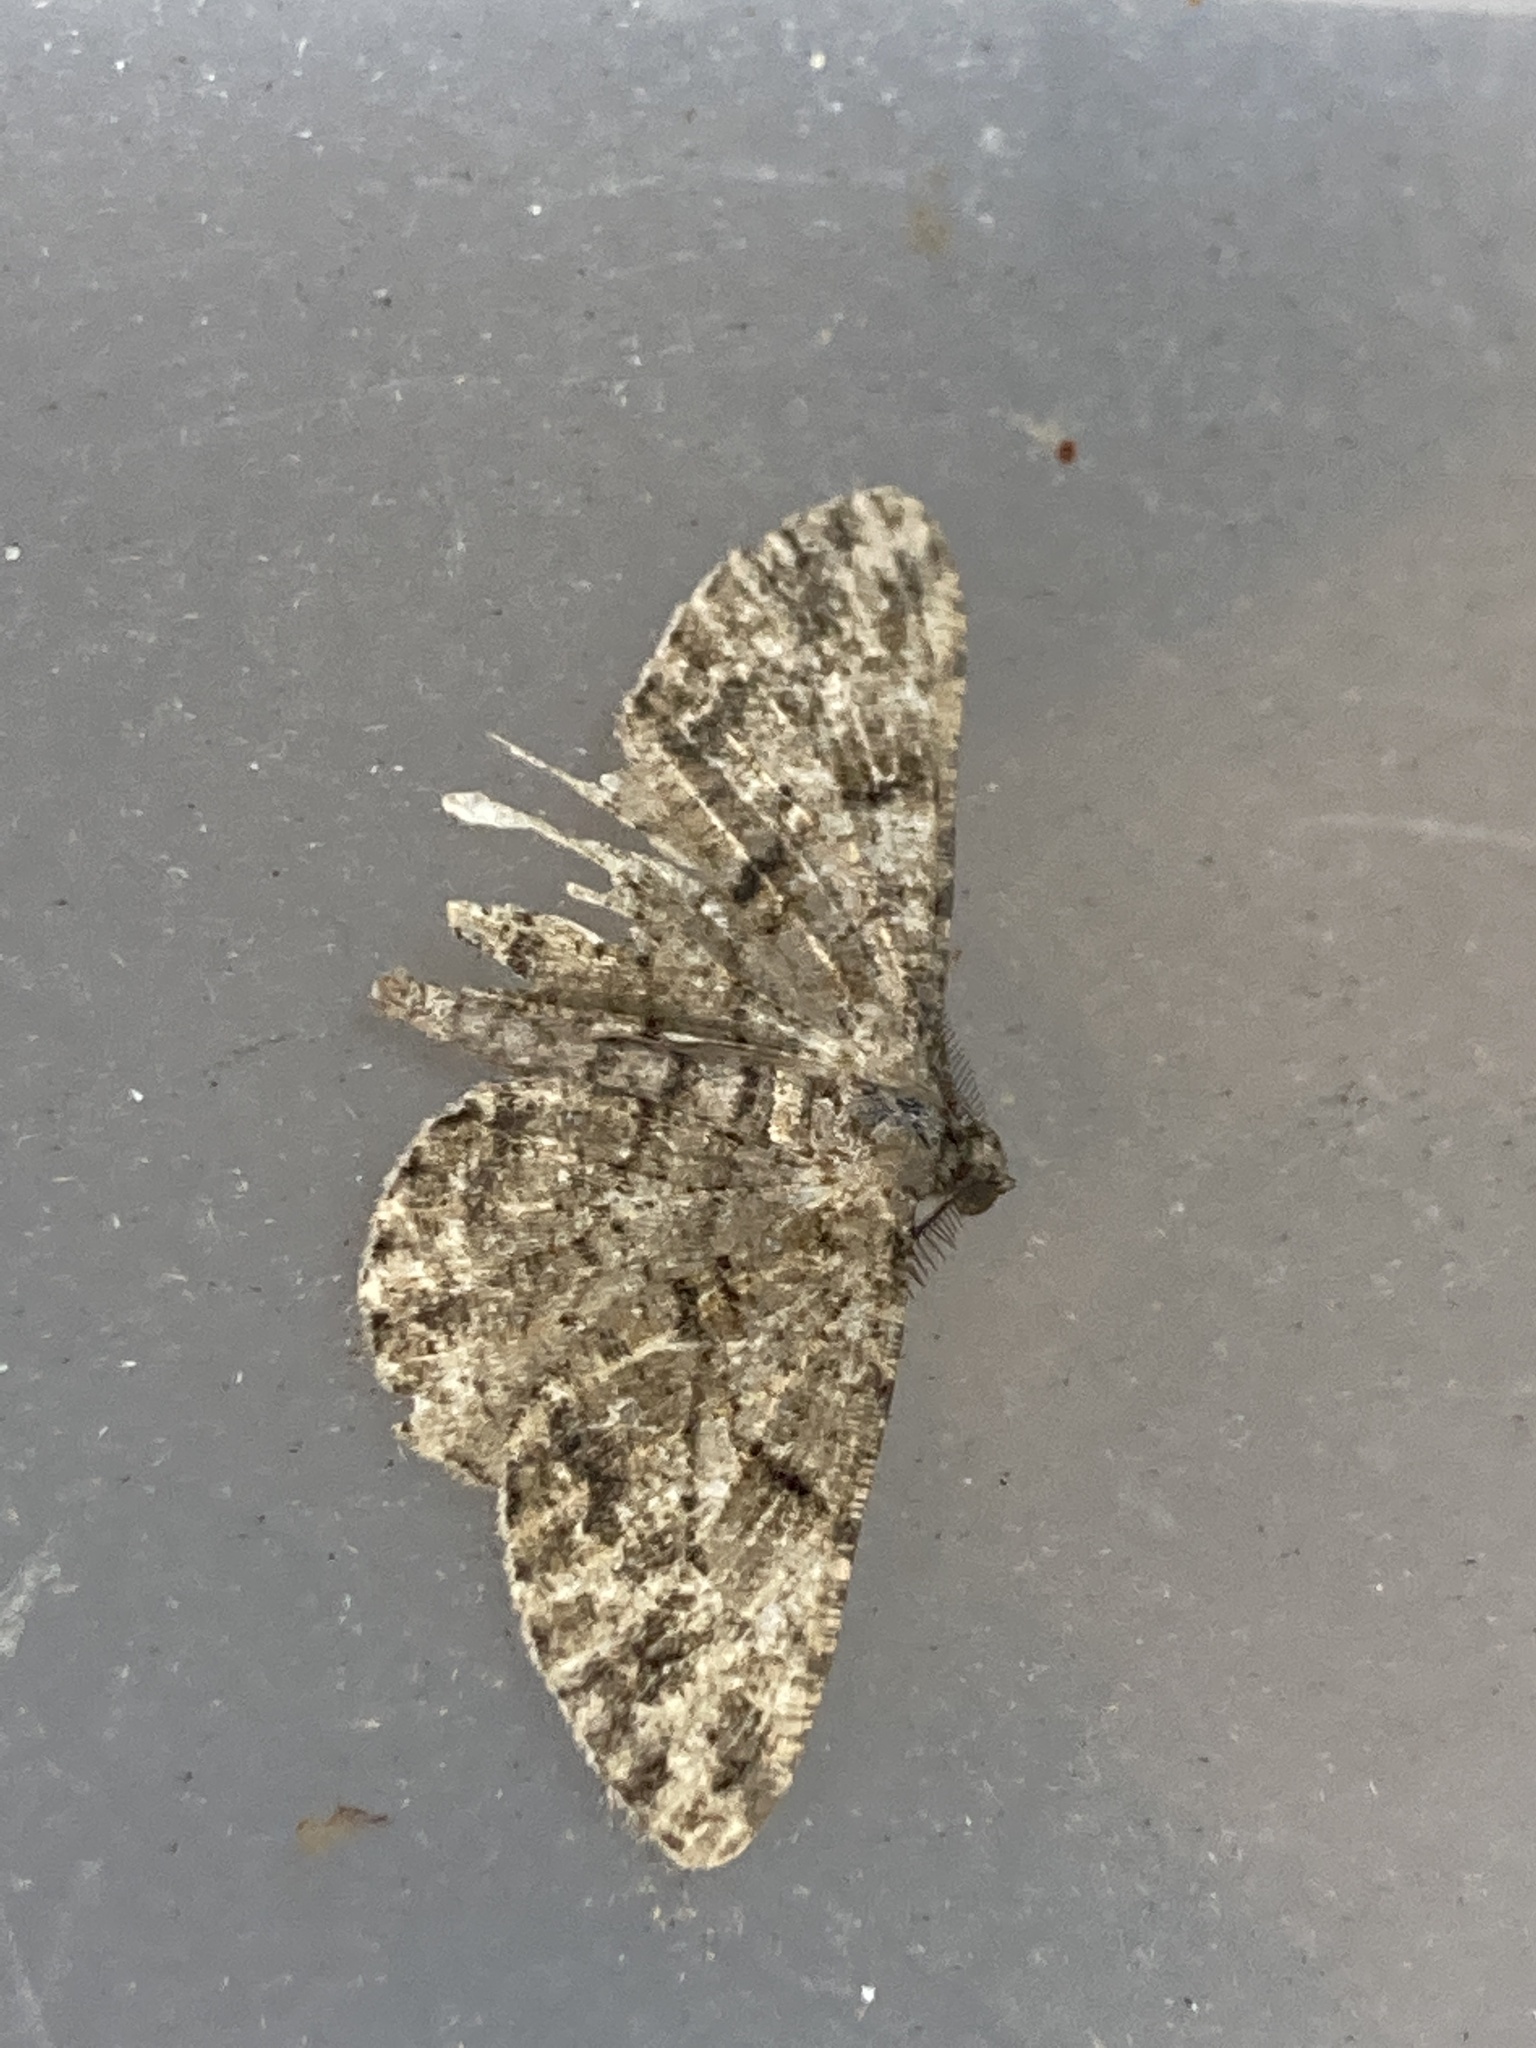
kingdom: Animalia
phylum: Arthropoda
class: Insecta
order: Lepidoptera
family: Geometridae
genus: Deileptenia
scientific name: Deileptenia ribeata
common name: Satin beauty
